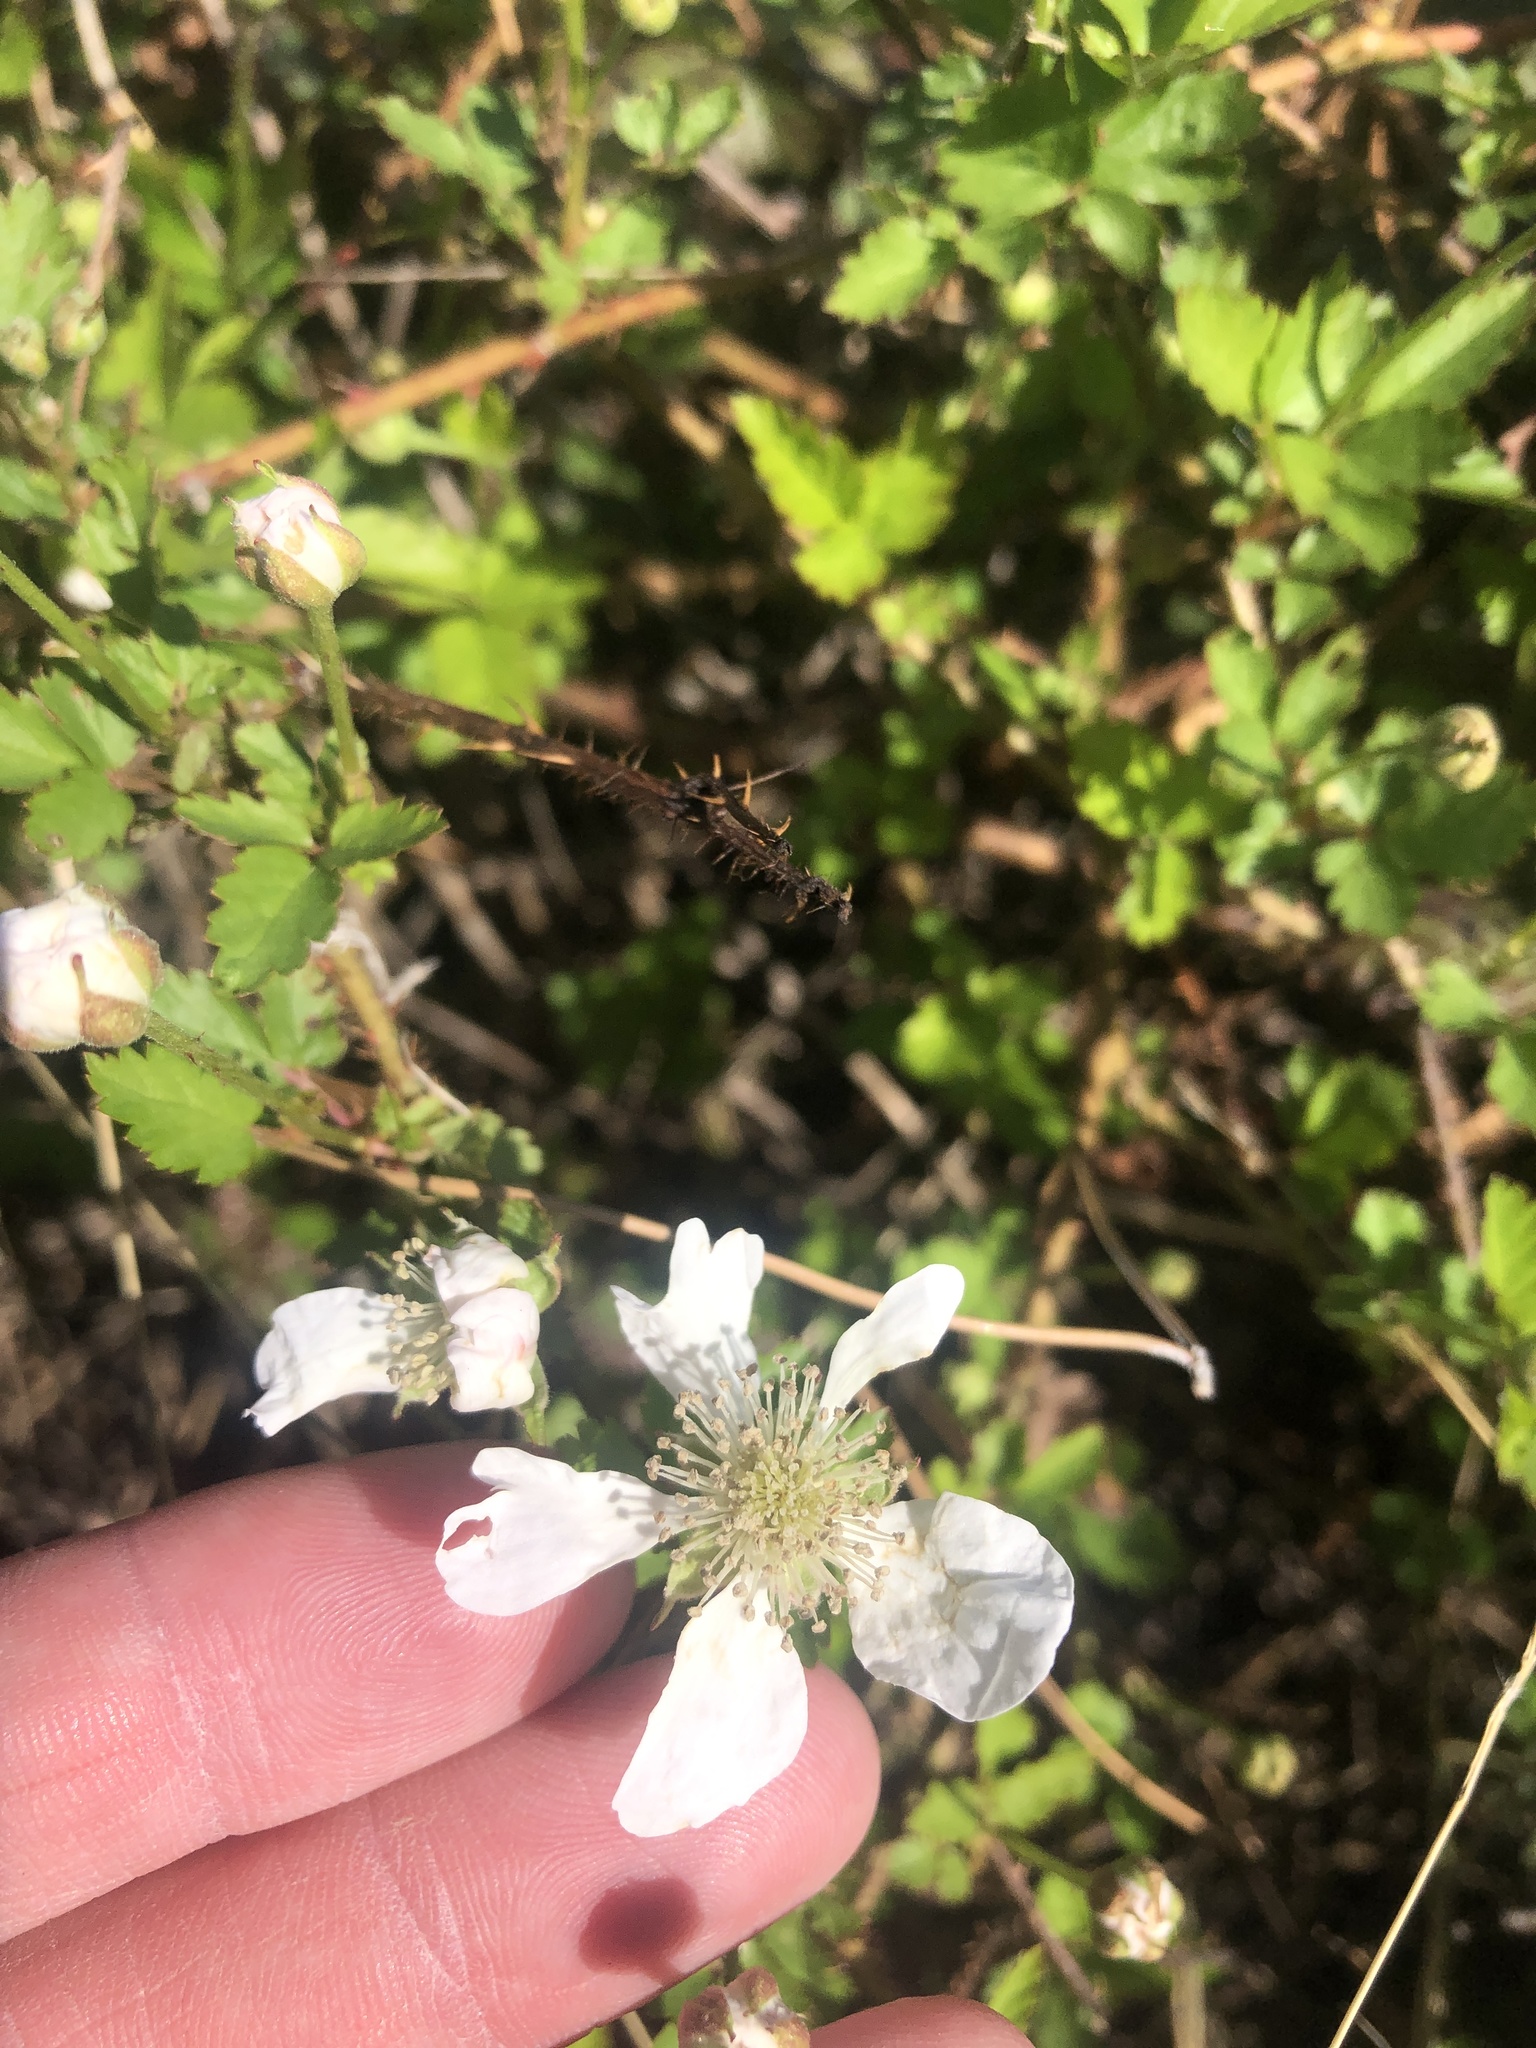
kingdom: Plantae
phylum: Tracheophyta
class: Magnoliopsida
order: Rosales
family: Rosaceae
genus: Rubus
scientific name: Rubus trivialis
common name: Southern dewberry
